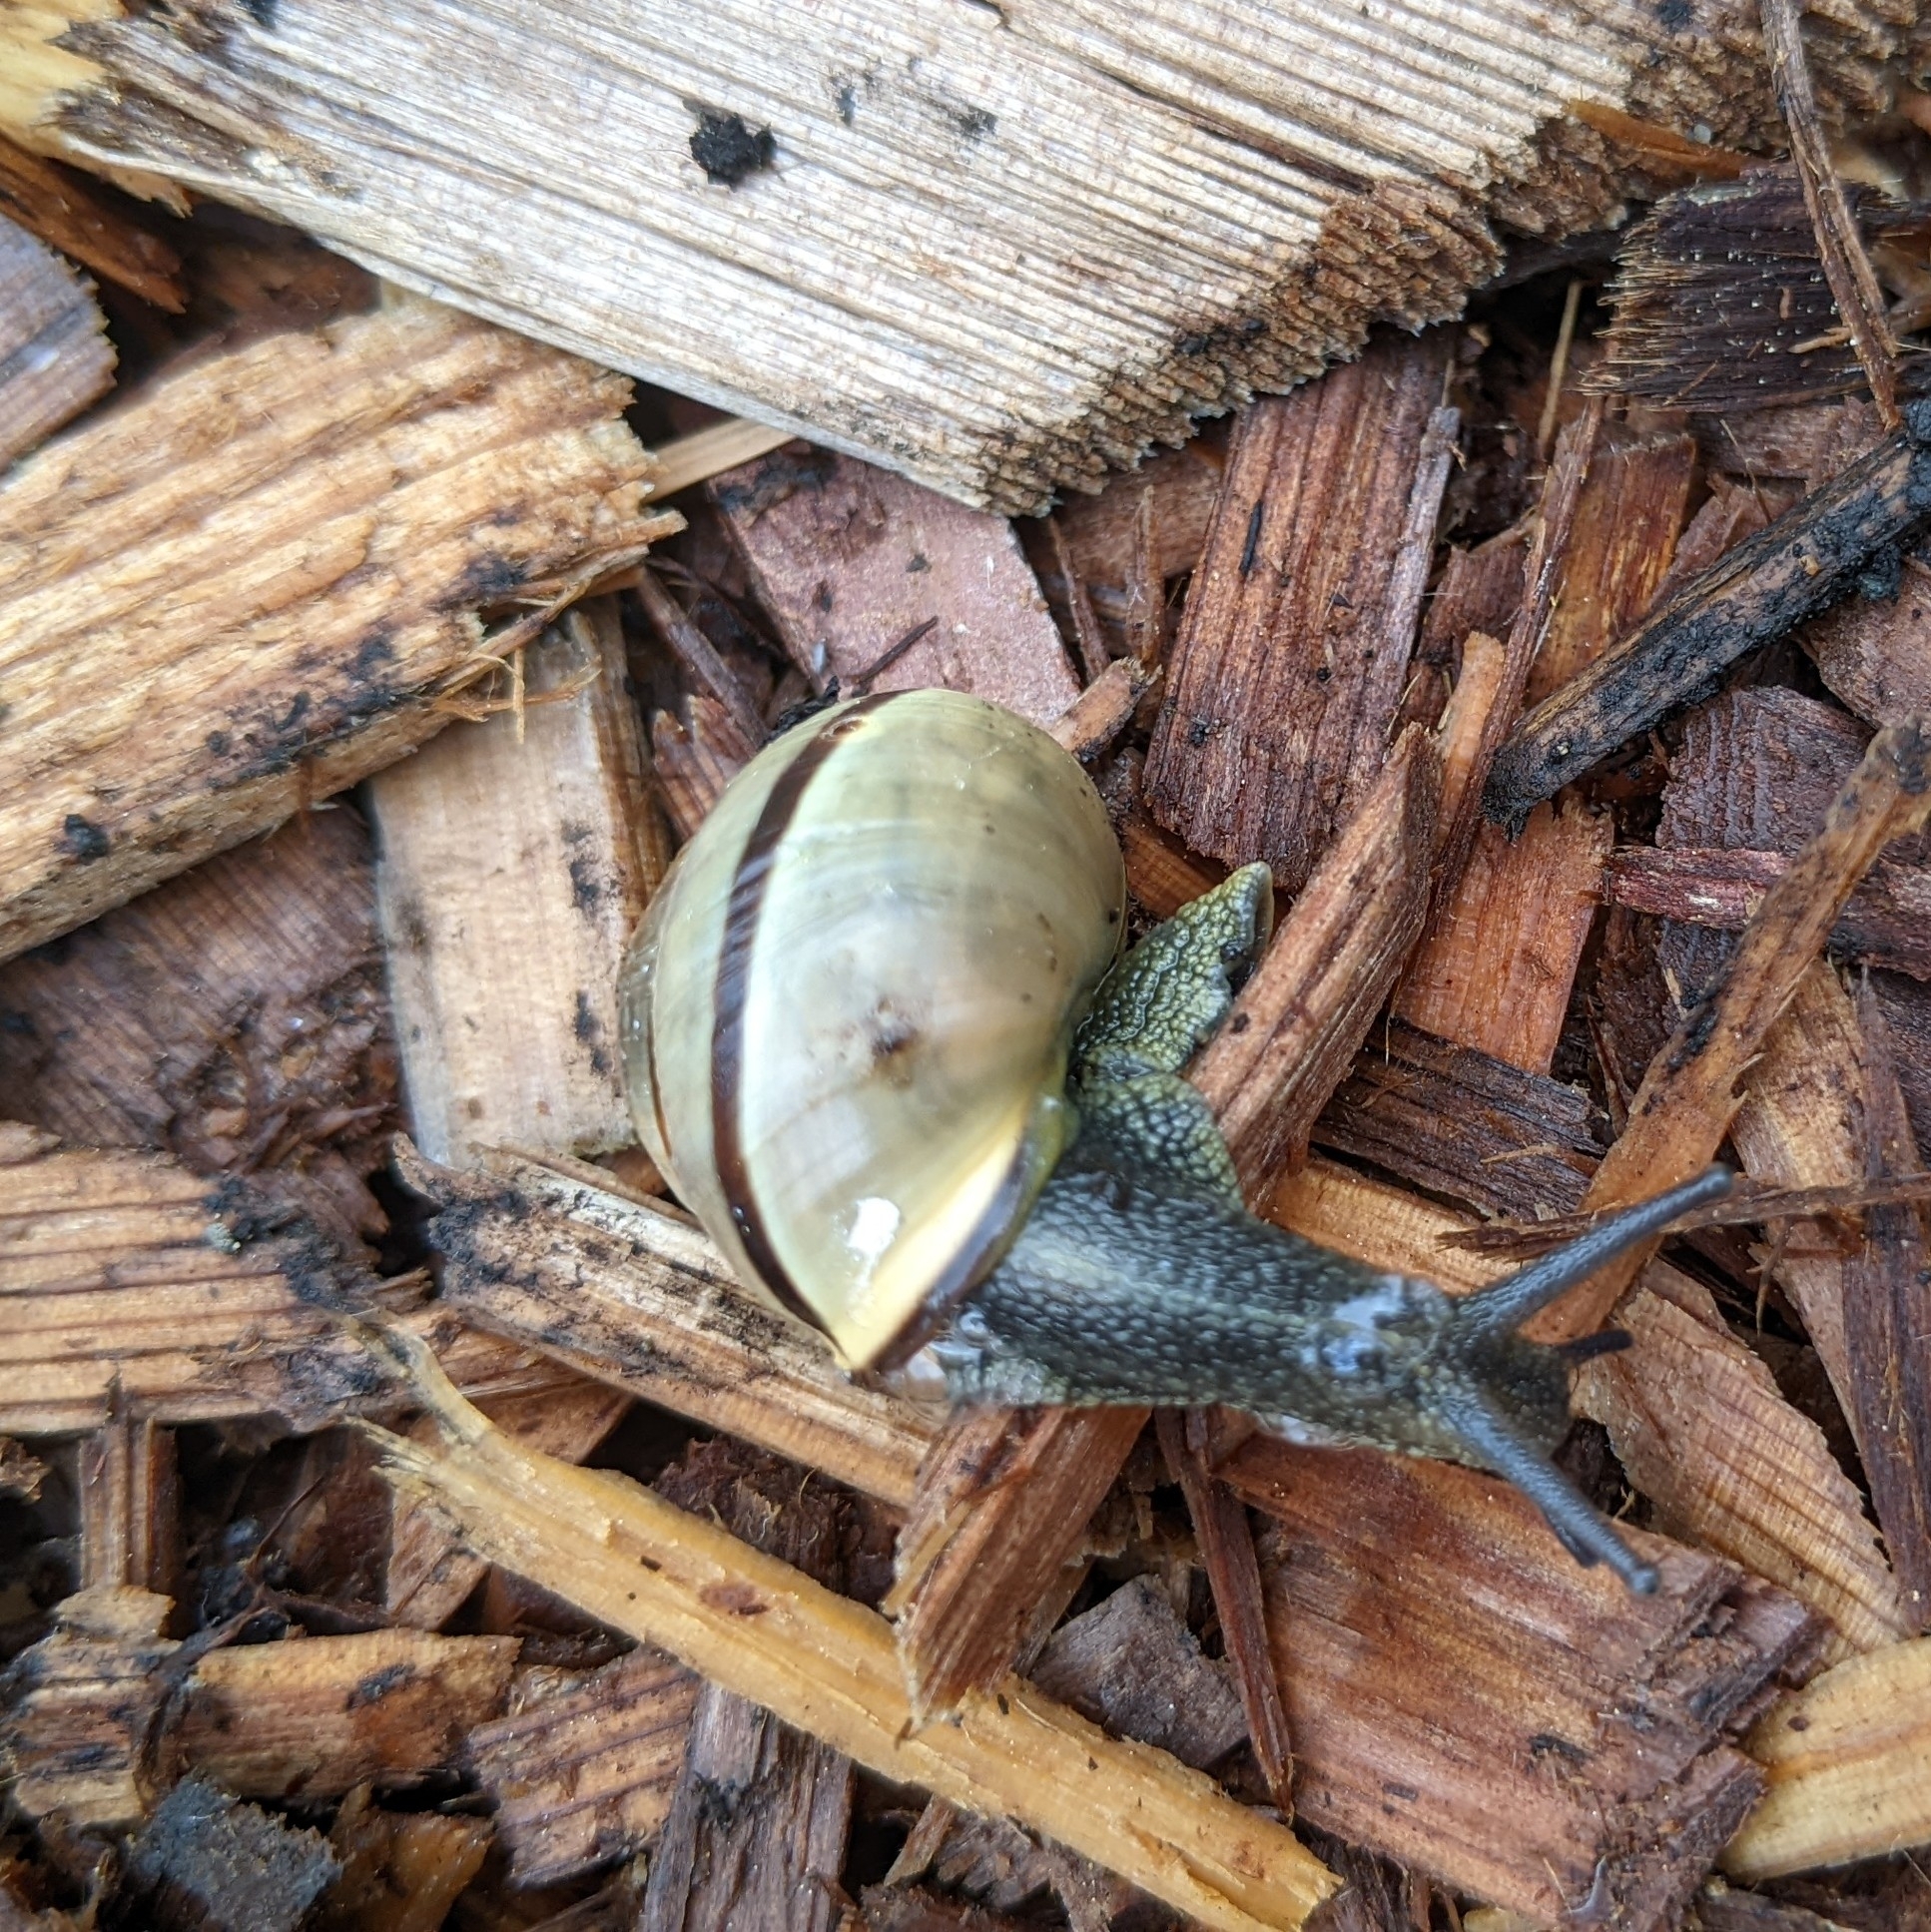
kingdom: Animalia
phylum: Mollusca
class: Gastropoda
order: Stylommatophora
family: Helicidae
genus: Cepaea
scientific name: Cepaea nemoralis
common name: Grovesnail
